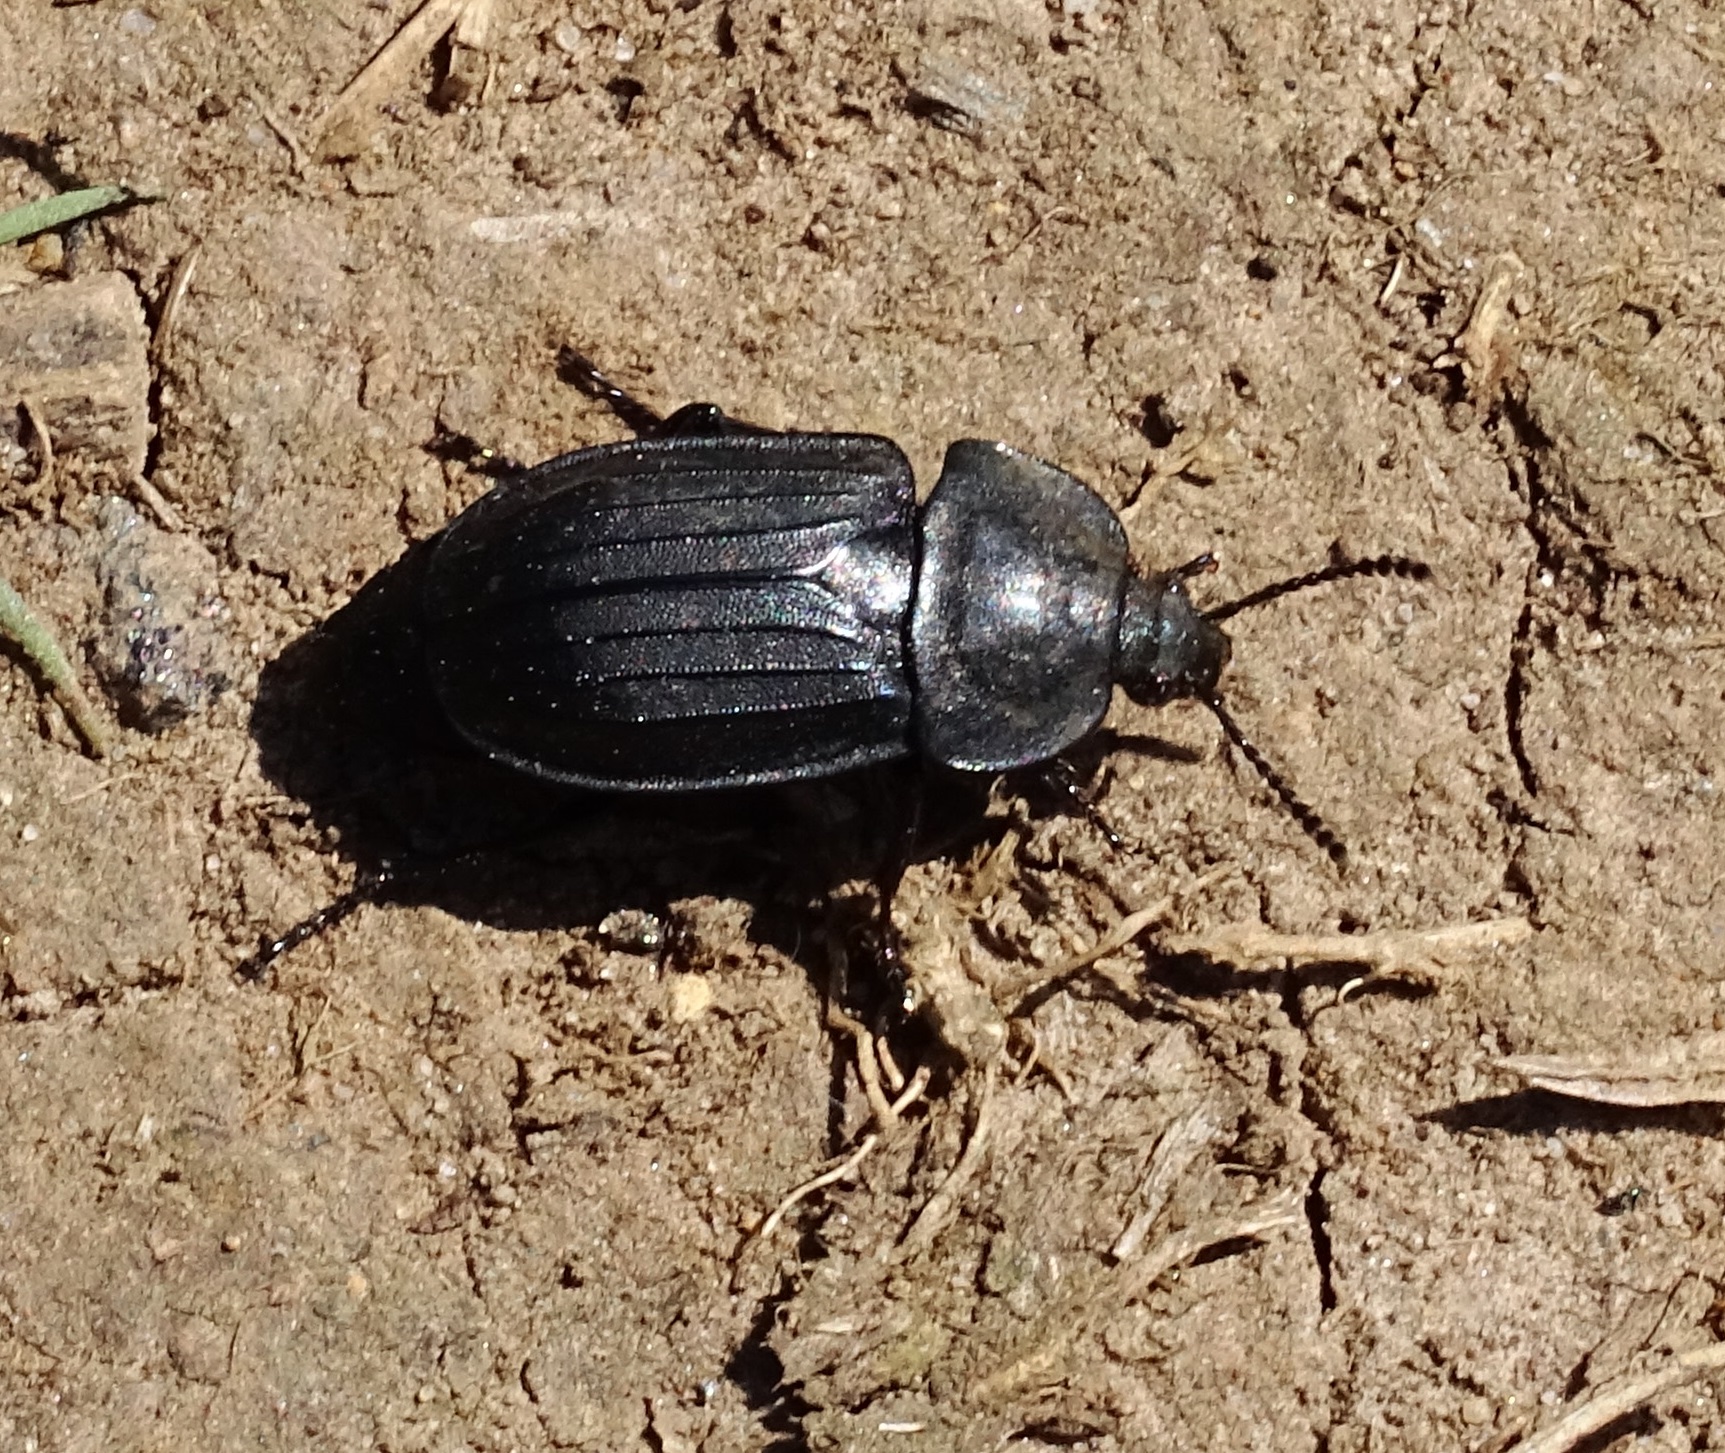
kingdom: Animalia
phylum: Arthropoda
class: Insecta
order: Coleoptera
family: Staphylinidae
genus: Silpha
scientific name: Silpha tristis
